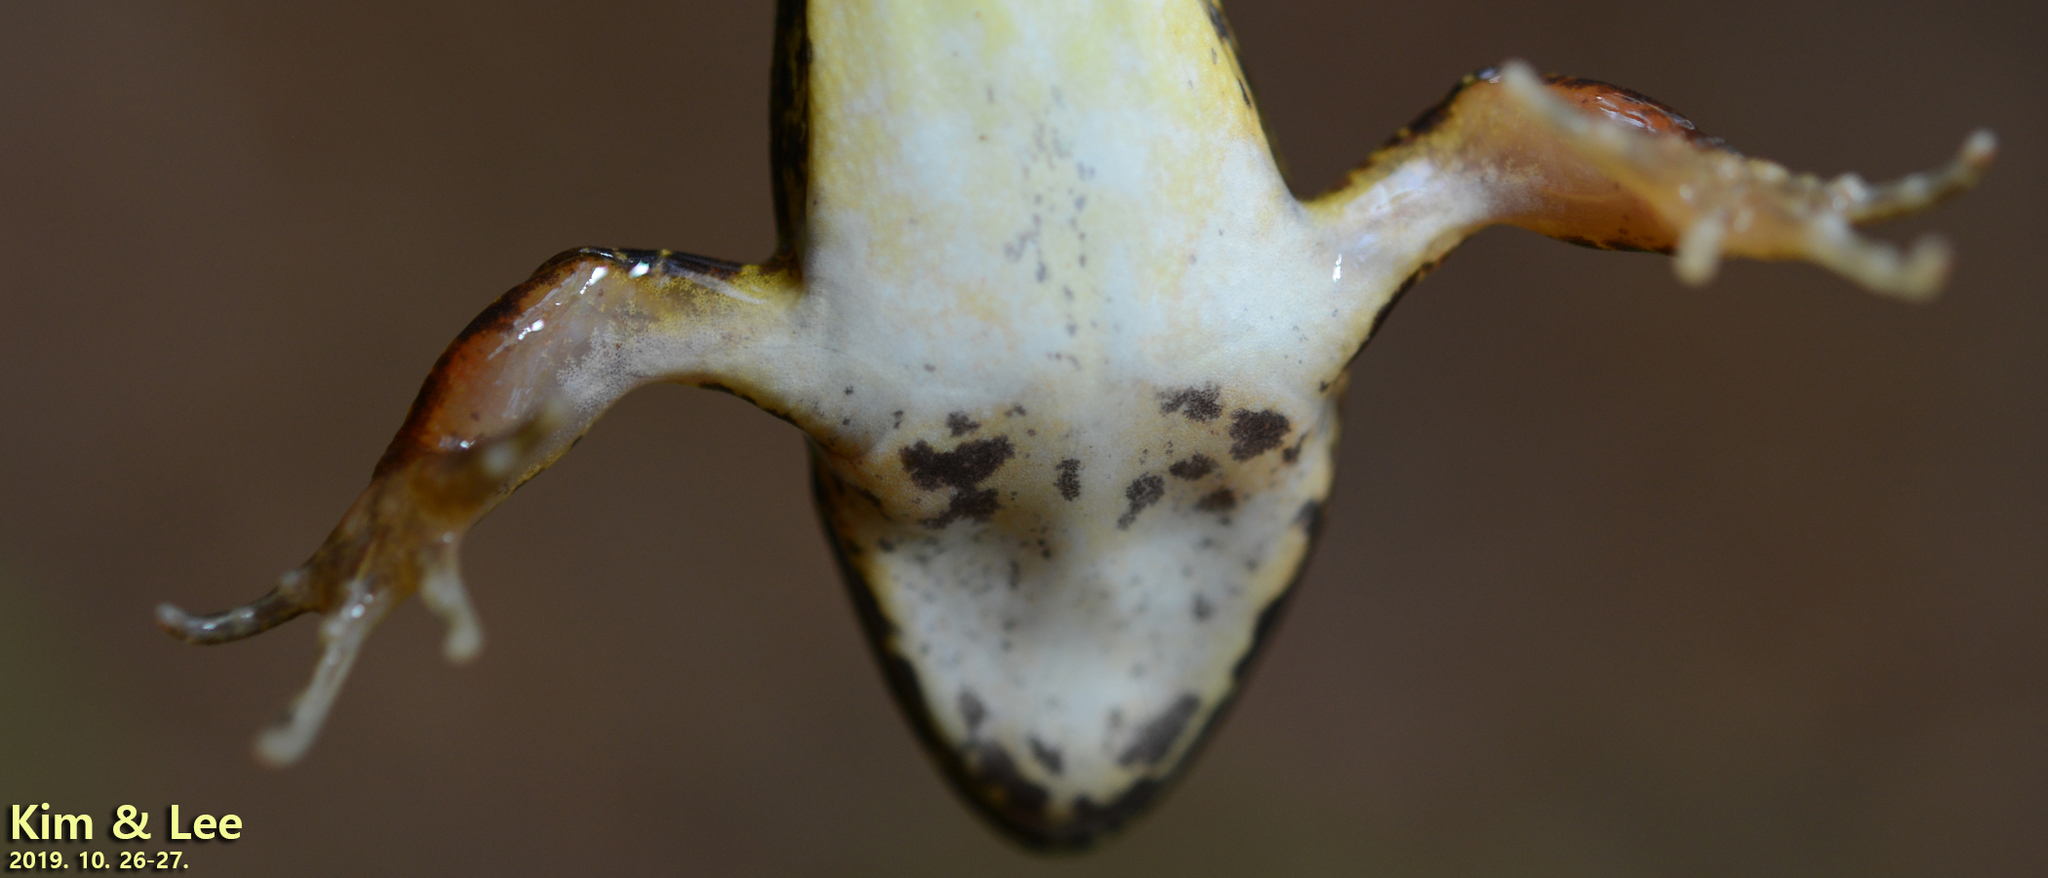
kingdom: Animalia
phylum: Chordata
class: Amphibia
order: Anura
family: Ranidae
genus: Rana
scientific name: Rana huanrenensis
